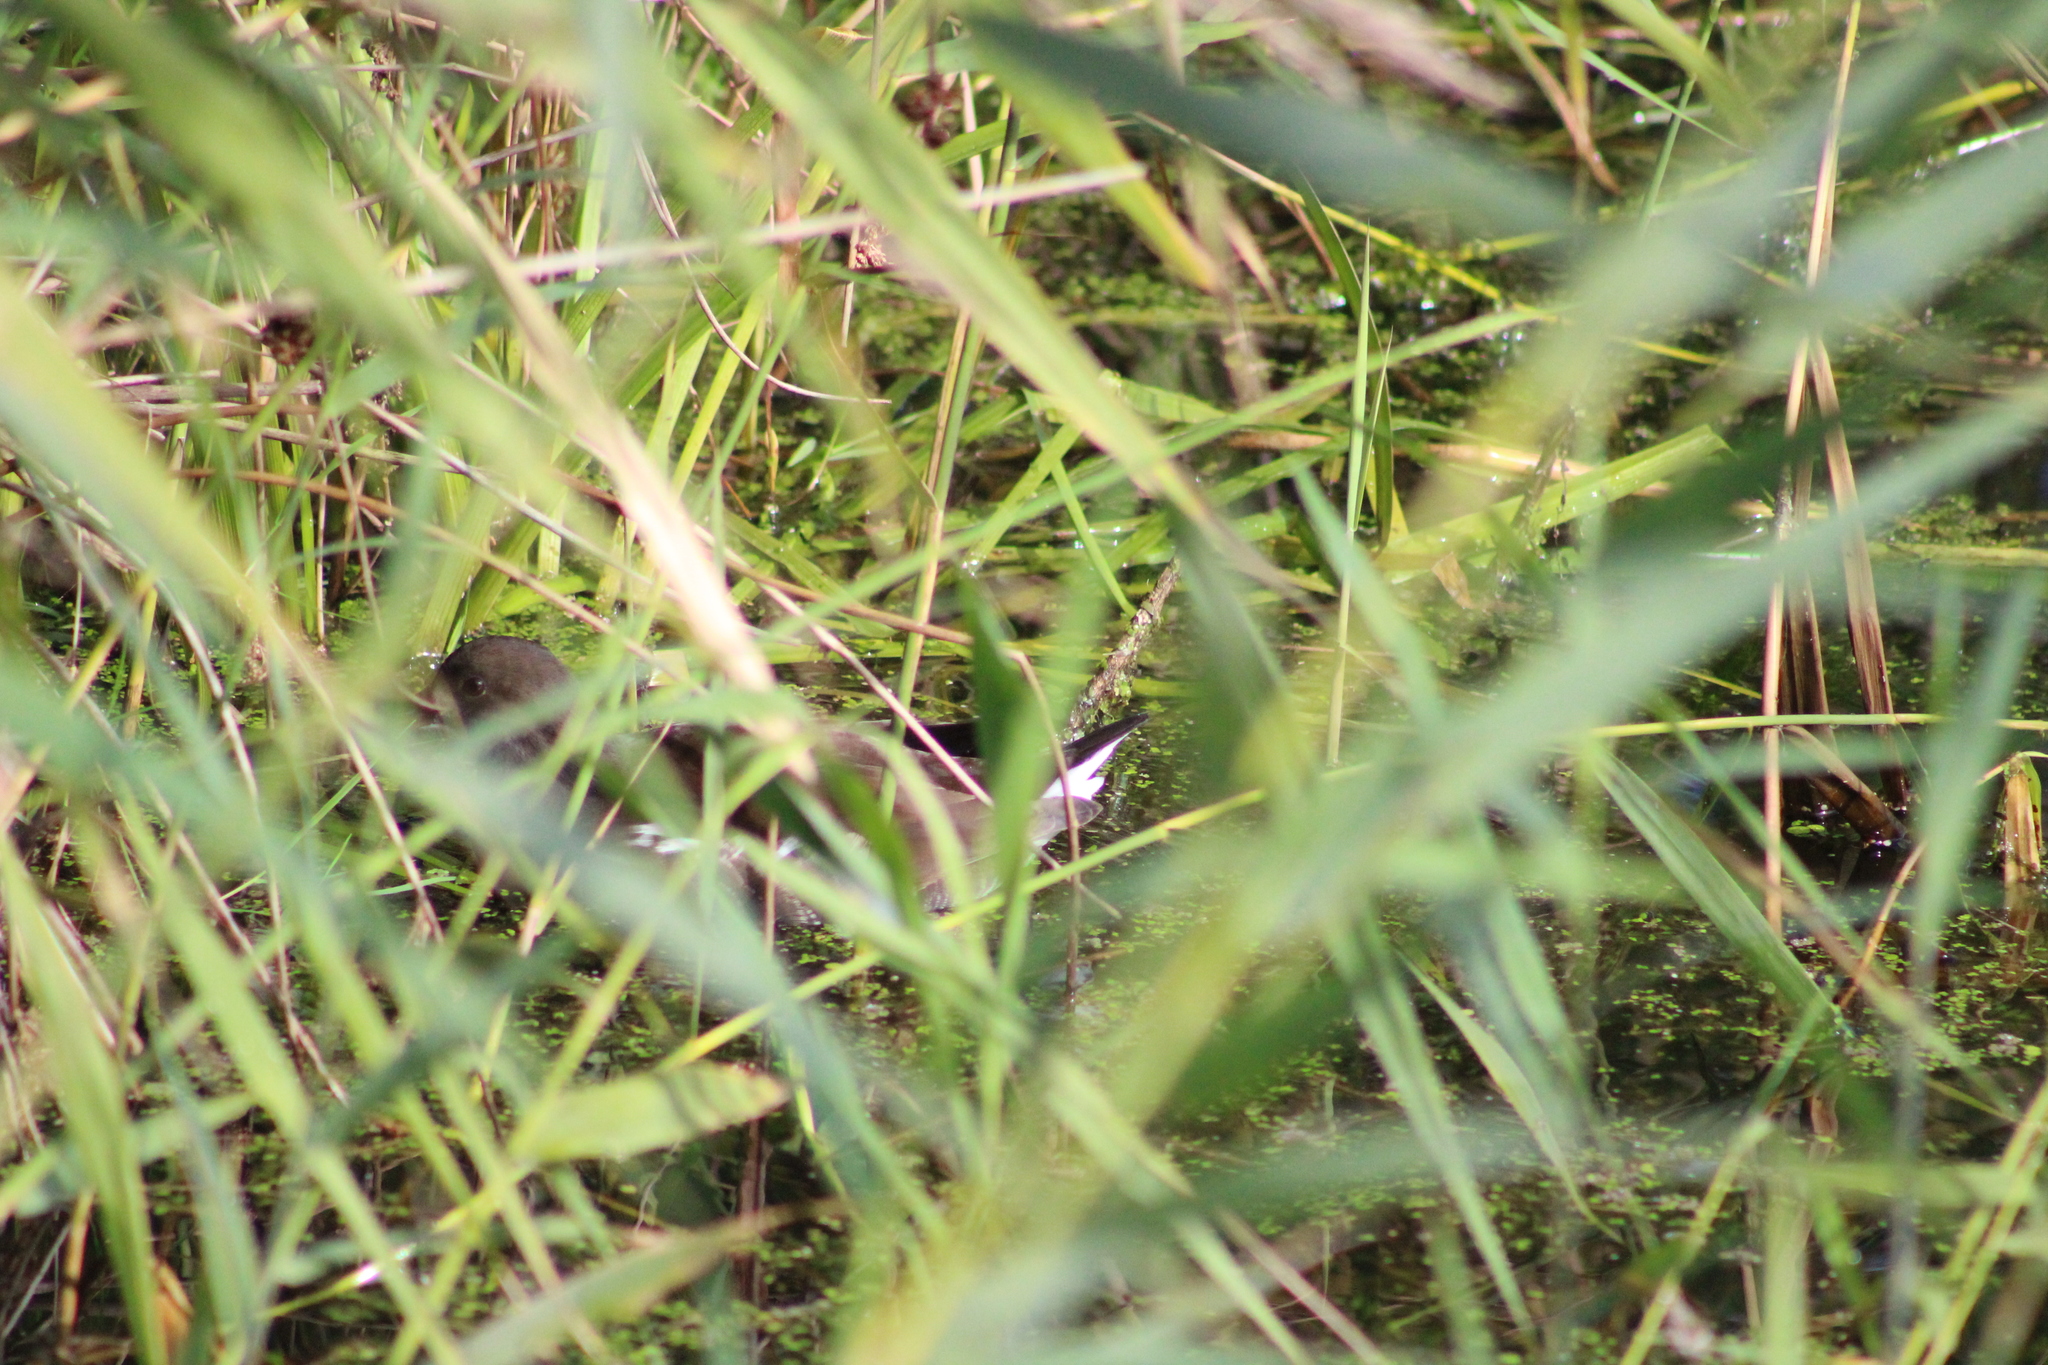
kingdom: Animalia
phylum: Chordata
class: Aves
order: Gruiformes
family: Rallidae
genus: Gallinula
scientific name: Gallinula chloropus
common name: Common moorhen
